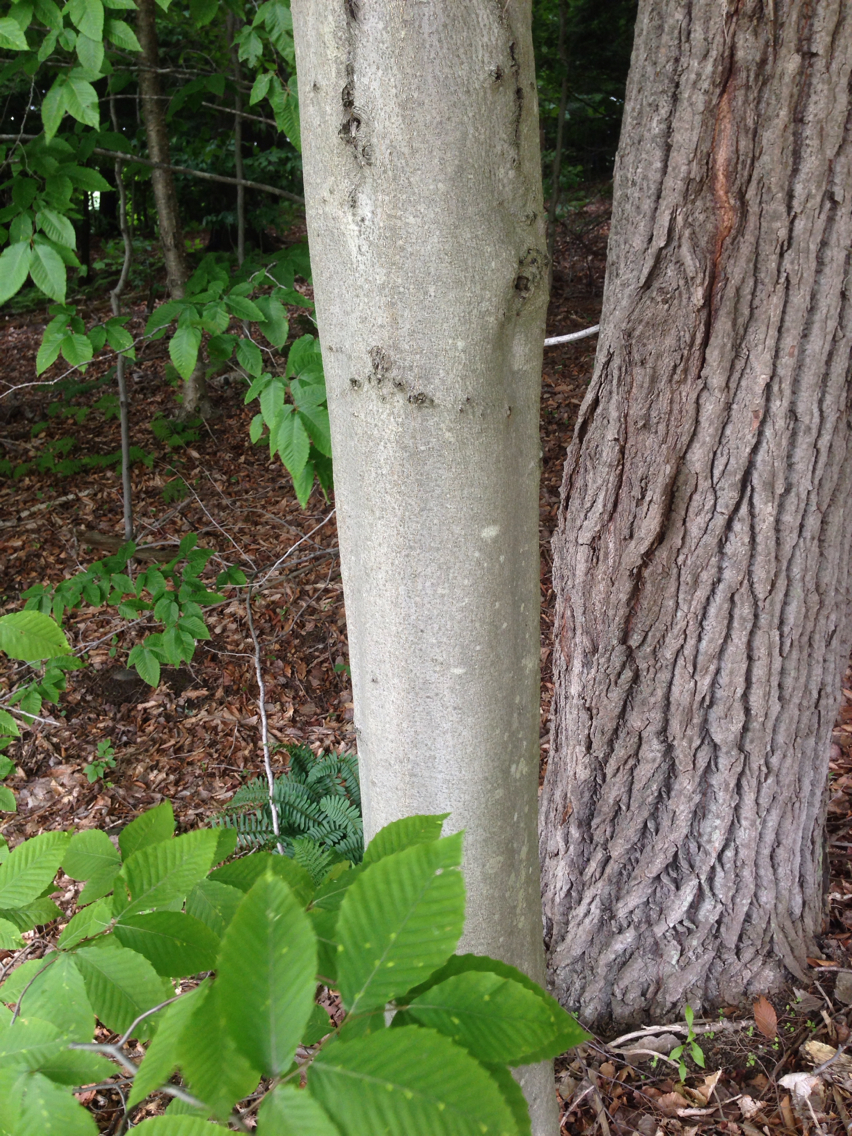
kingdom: Plantae
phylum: Tracheophyta
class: Magnoliopsida
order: Fagales
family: Fagaceae
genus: Fagus
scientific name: Fagus grandifolia
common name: American beech
